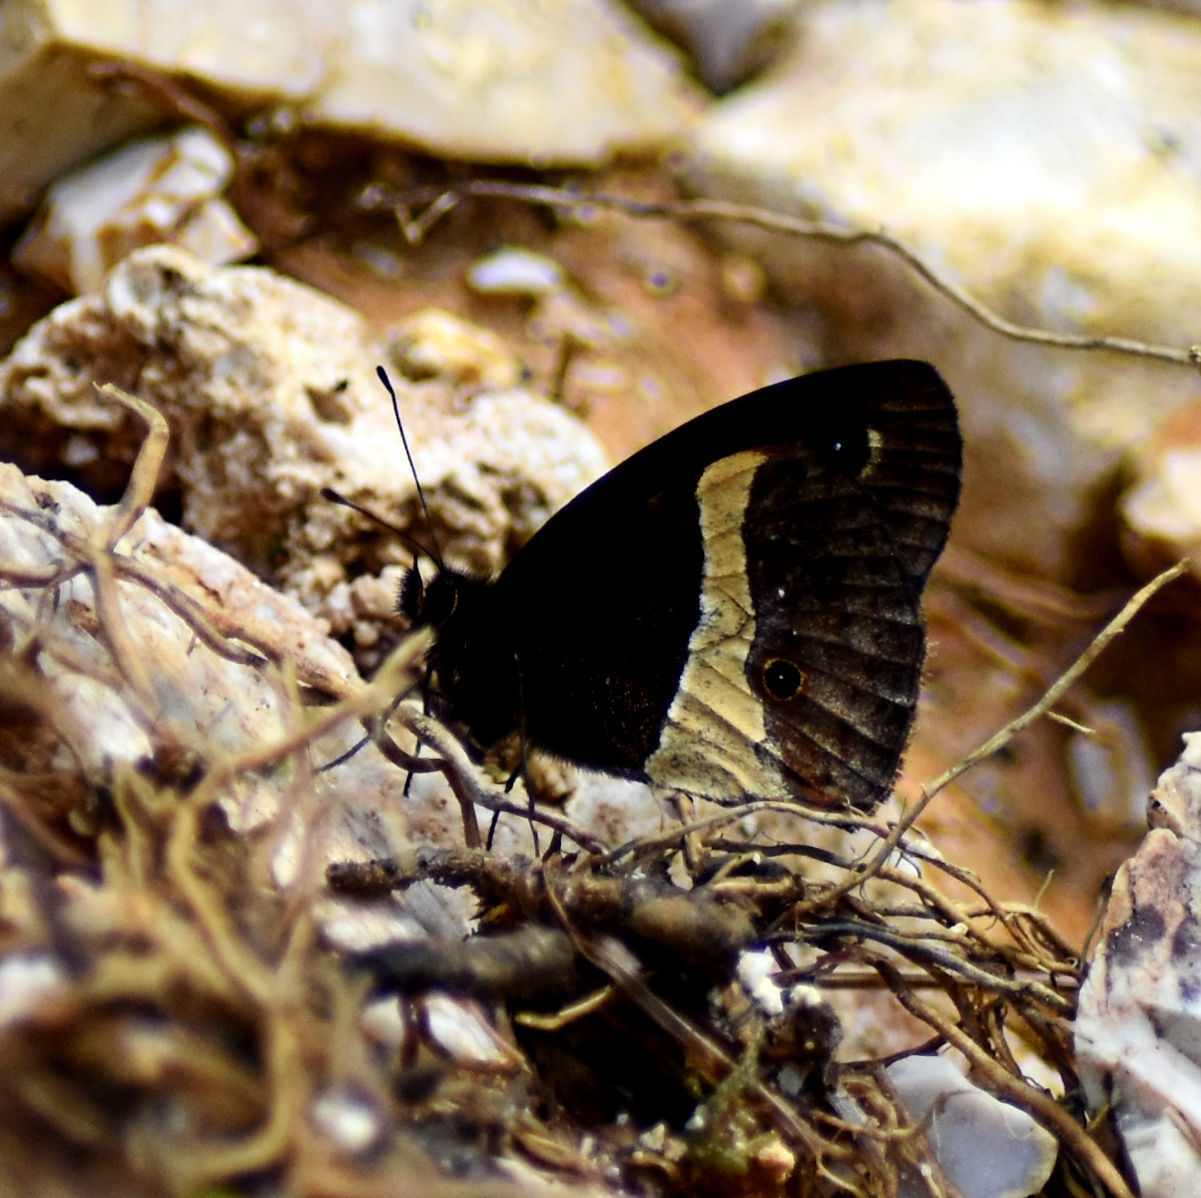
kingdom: Animalia
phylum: Arthropoda
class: Insecta
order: Lepidoptera
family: Nymphalidae
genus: Calisto
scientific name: Calisto archebates
